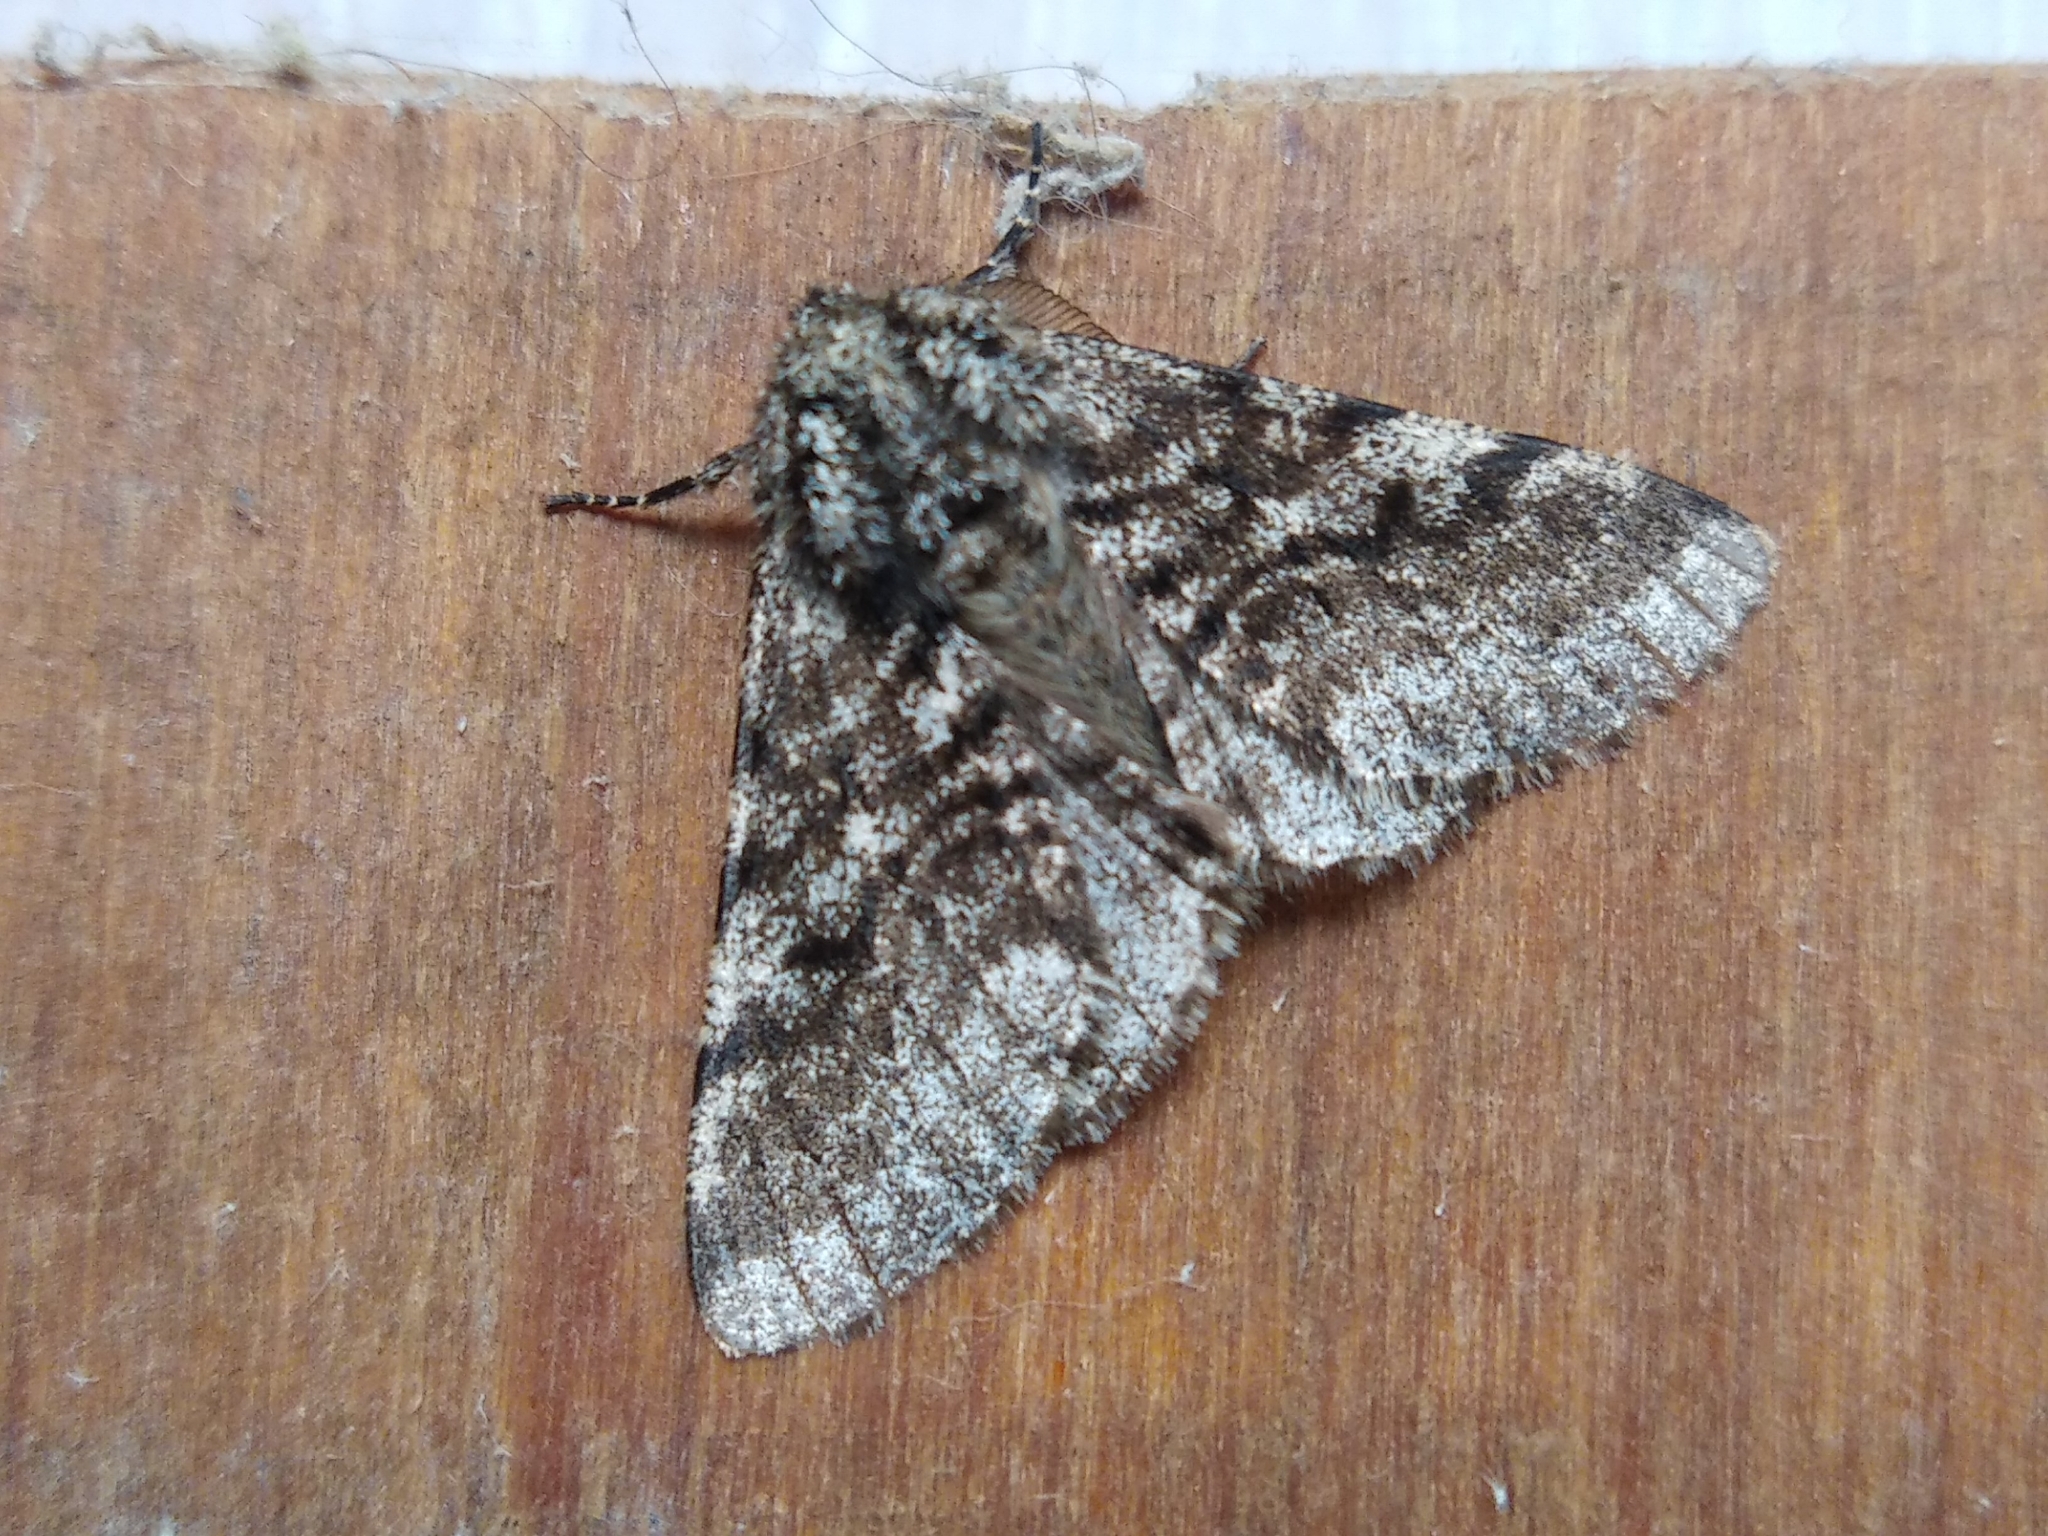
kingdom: Animalia
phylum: Arthropoda
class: Insecta
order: Lepidoptera
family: Geometridae
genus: Lycia
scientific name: Lycia hirtaria
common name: Brindled beauty
